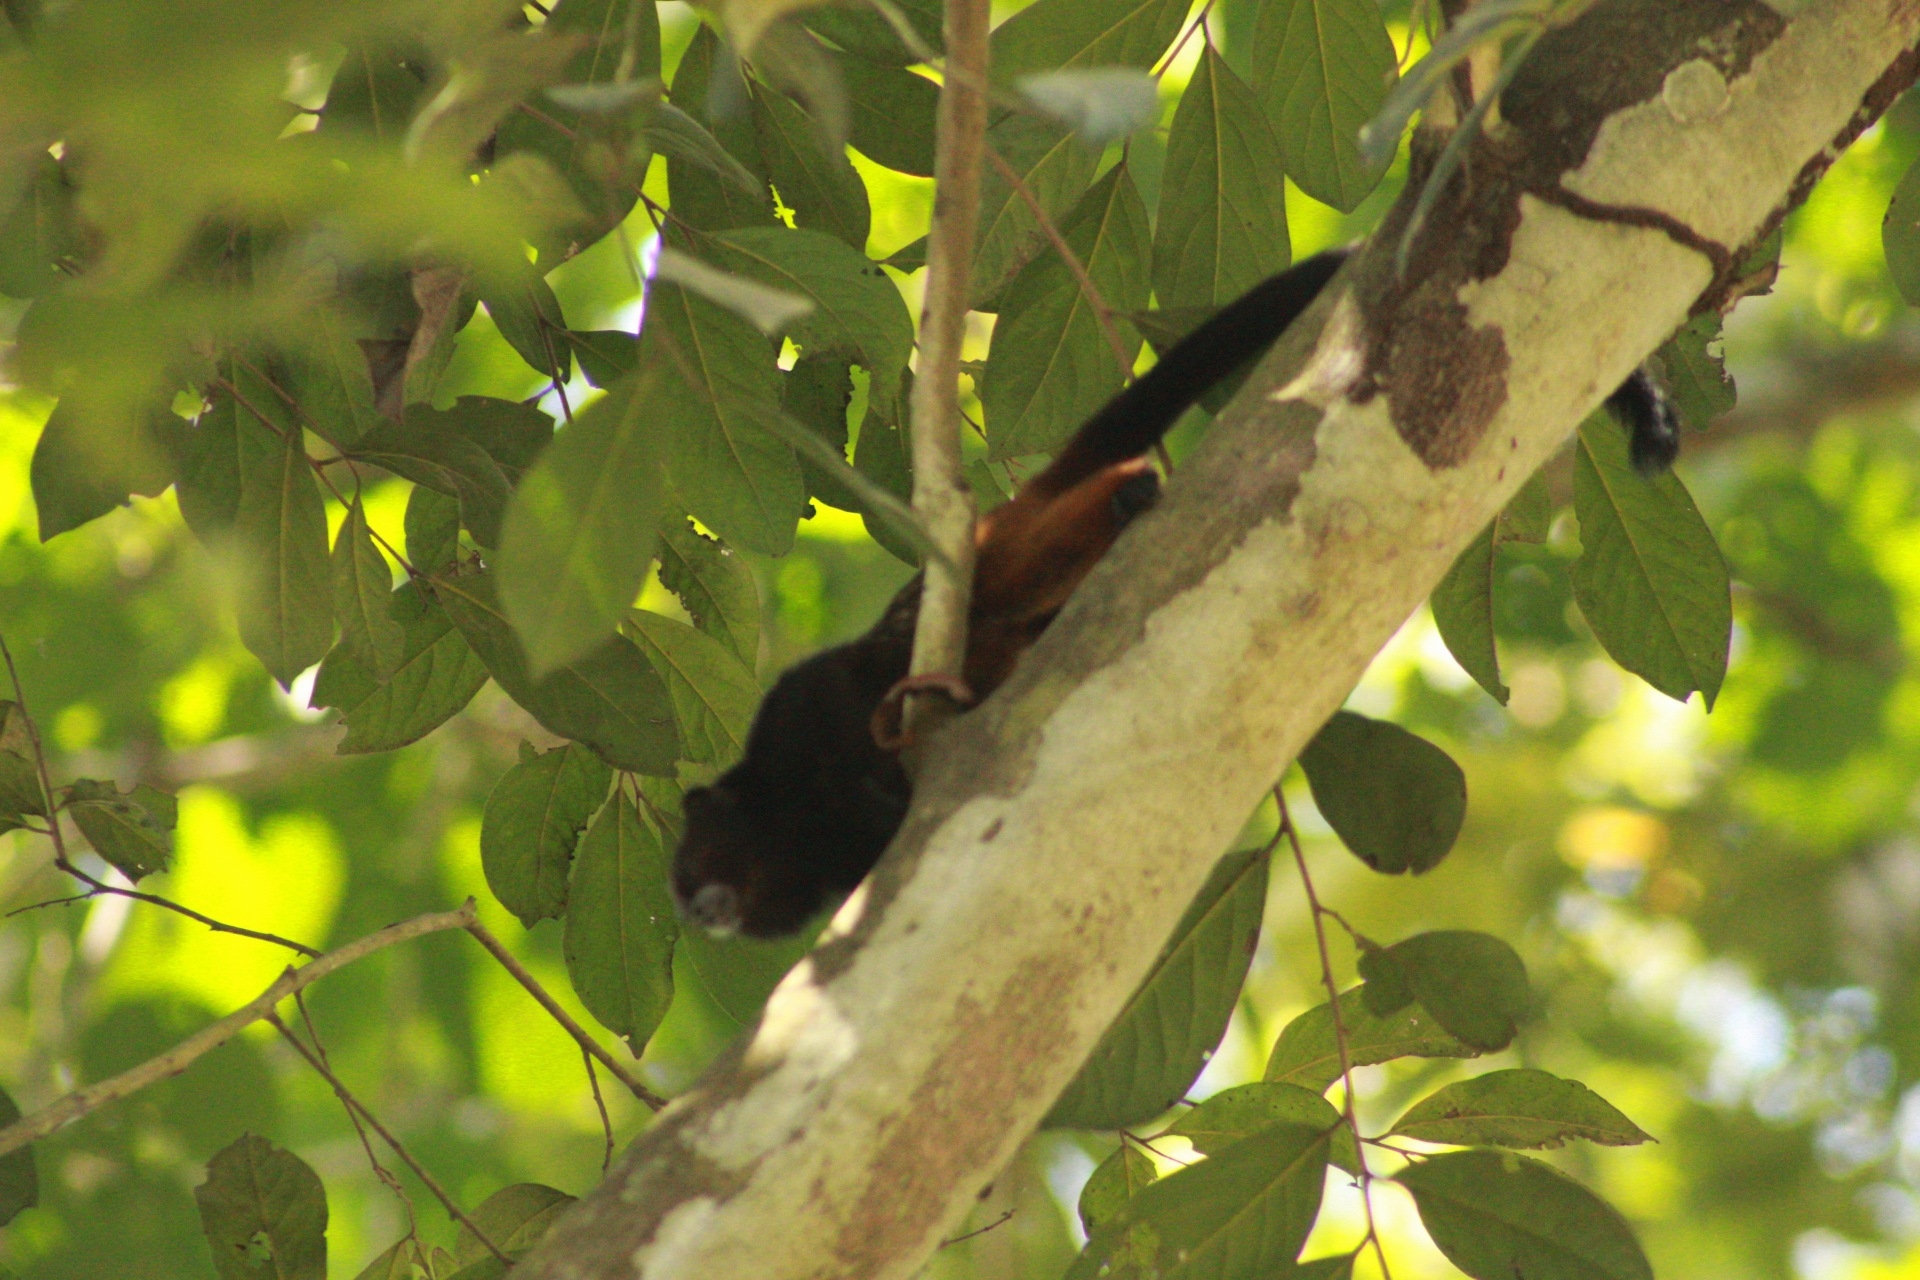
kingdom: Animalia
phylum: Chordata
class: Mammalia
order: Primates
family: Callitrichidae
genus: Leontocebus
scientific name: Leontocebus weddelli
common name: Weddell's saddle-back tamarin
